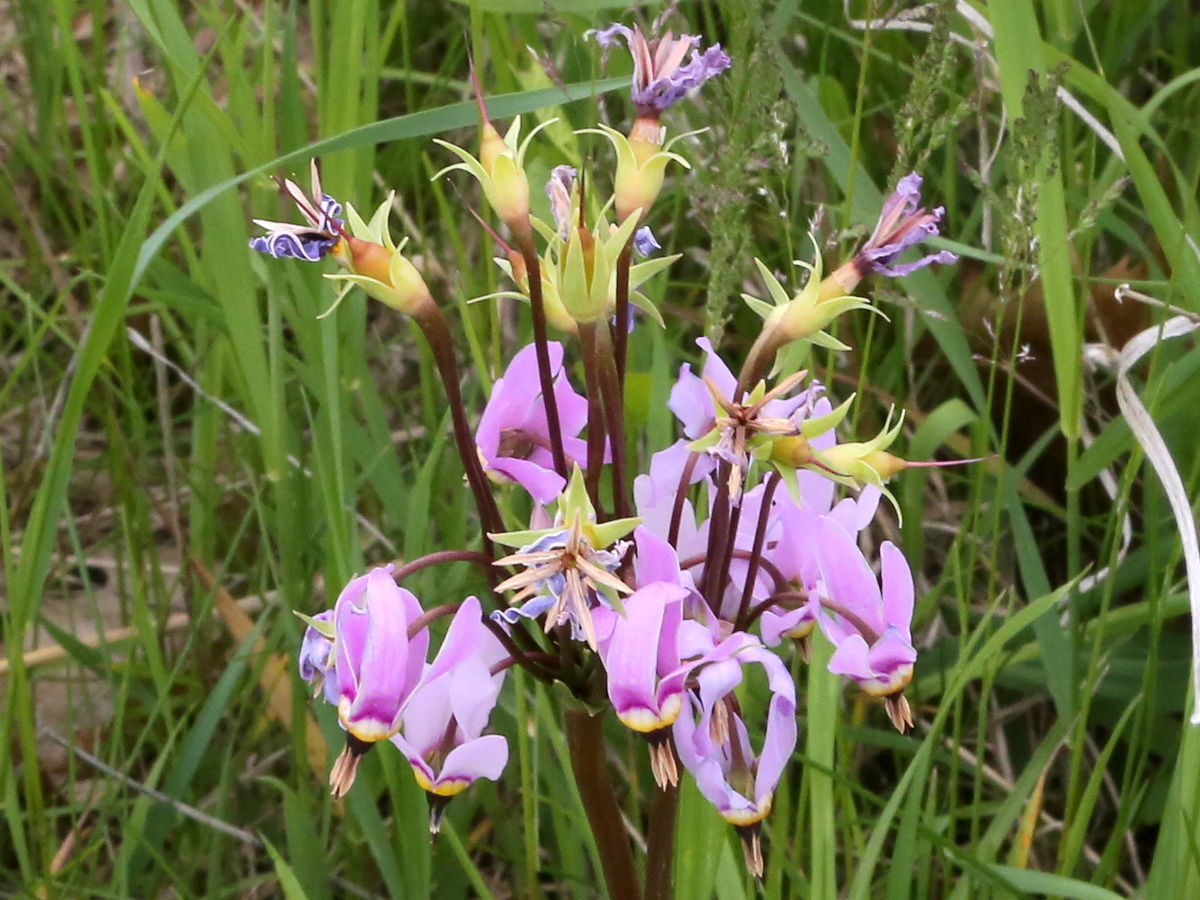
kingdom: Plantae
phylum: Tracheophyta
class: Magnoliopsida
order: Ericales
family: Primulaceae
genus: Dodecatheon
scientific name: Dodecatheon meadia
